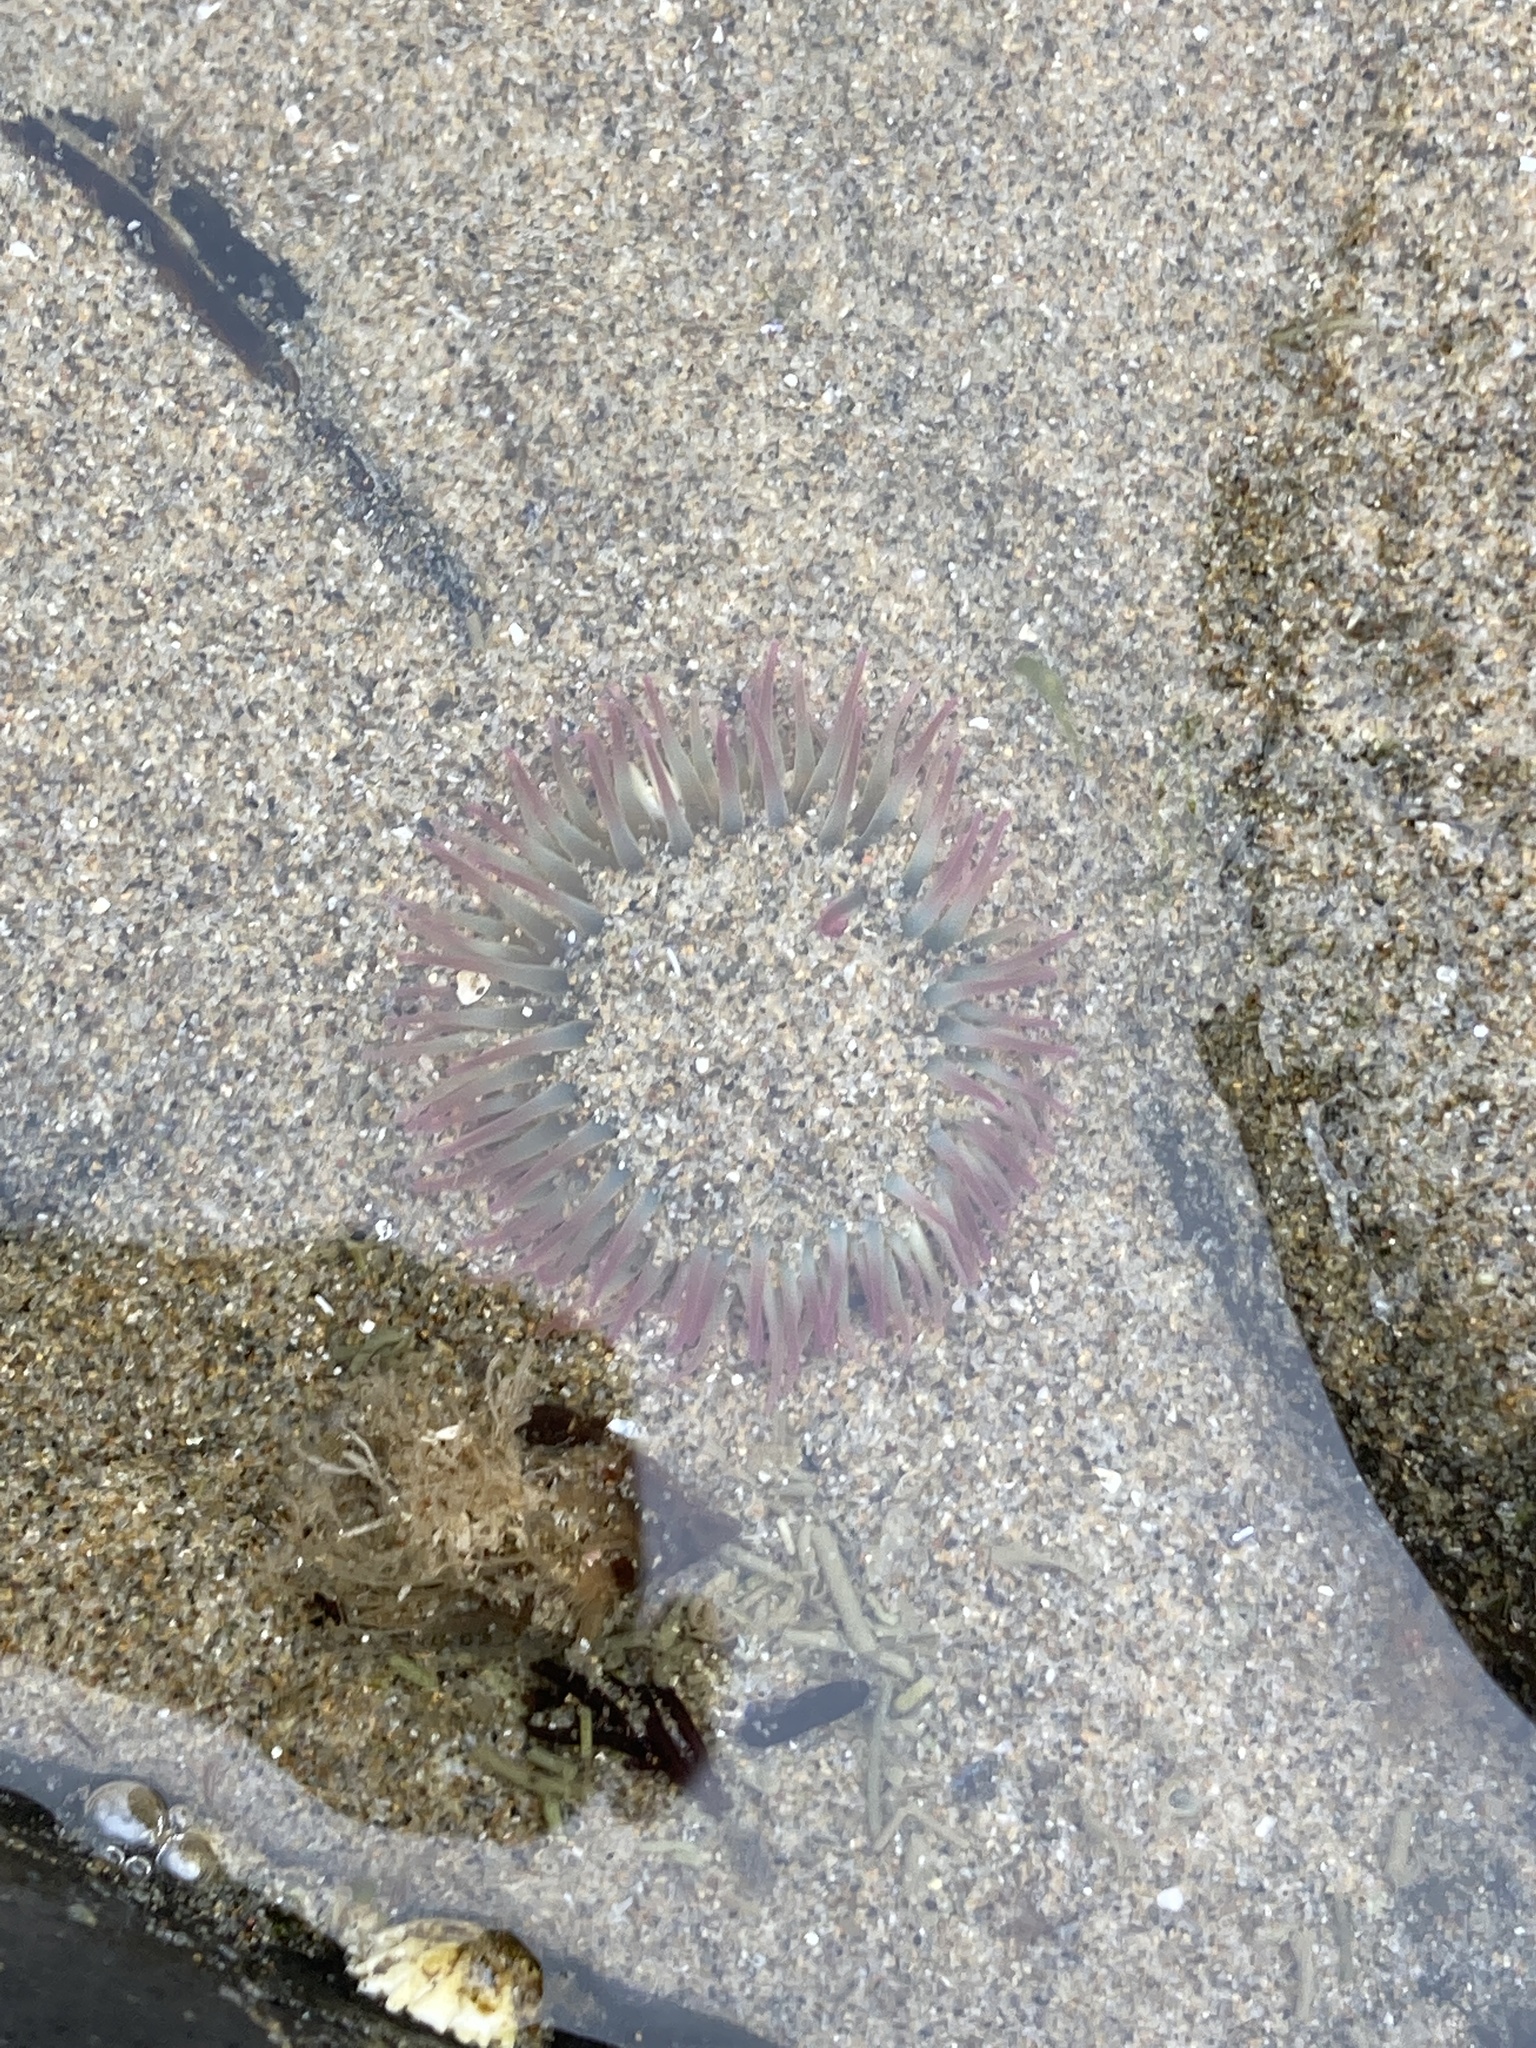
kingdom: Animalia
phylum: Cnidaria
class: Anthozoa
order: Actiniaria
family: Actiniidae
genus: Anthopleura
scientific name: Anthopleura elegantissima
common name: Clonal anemone
